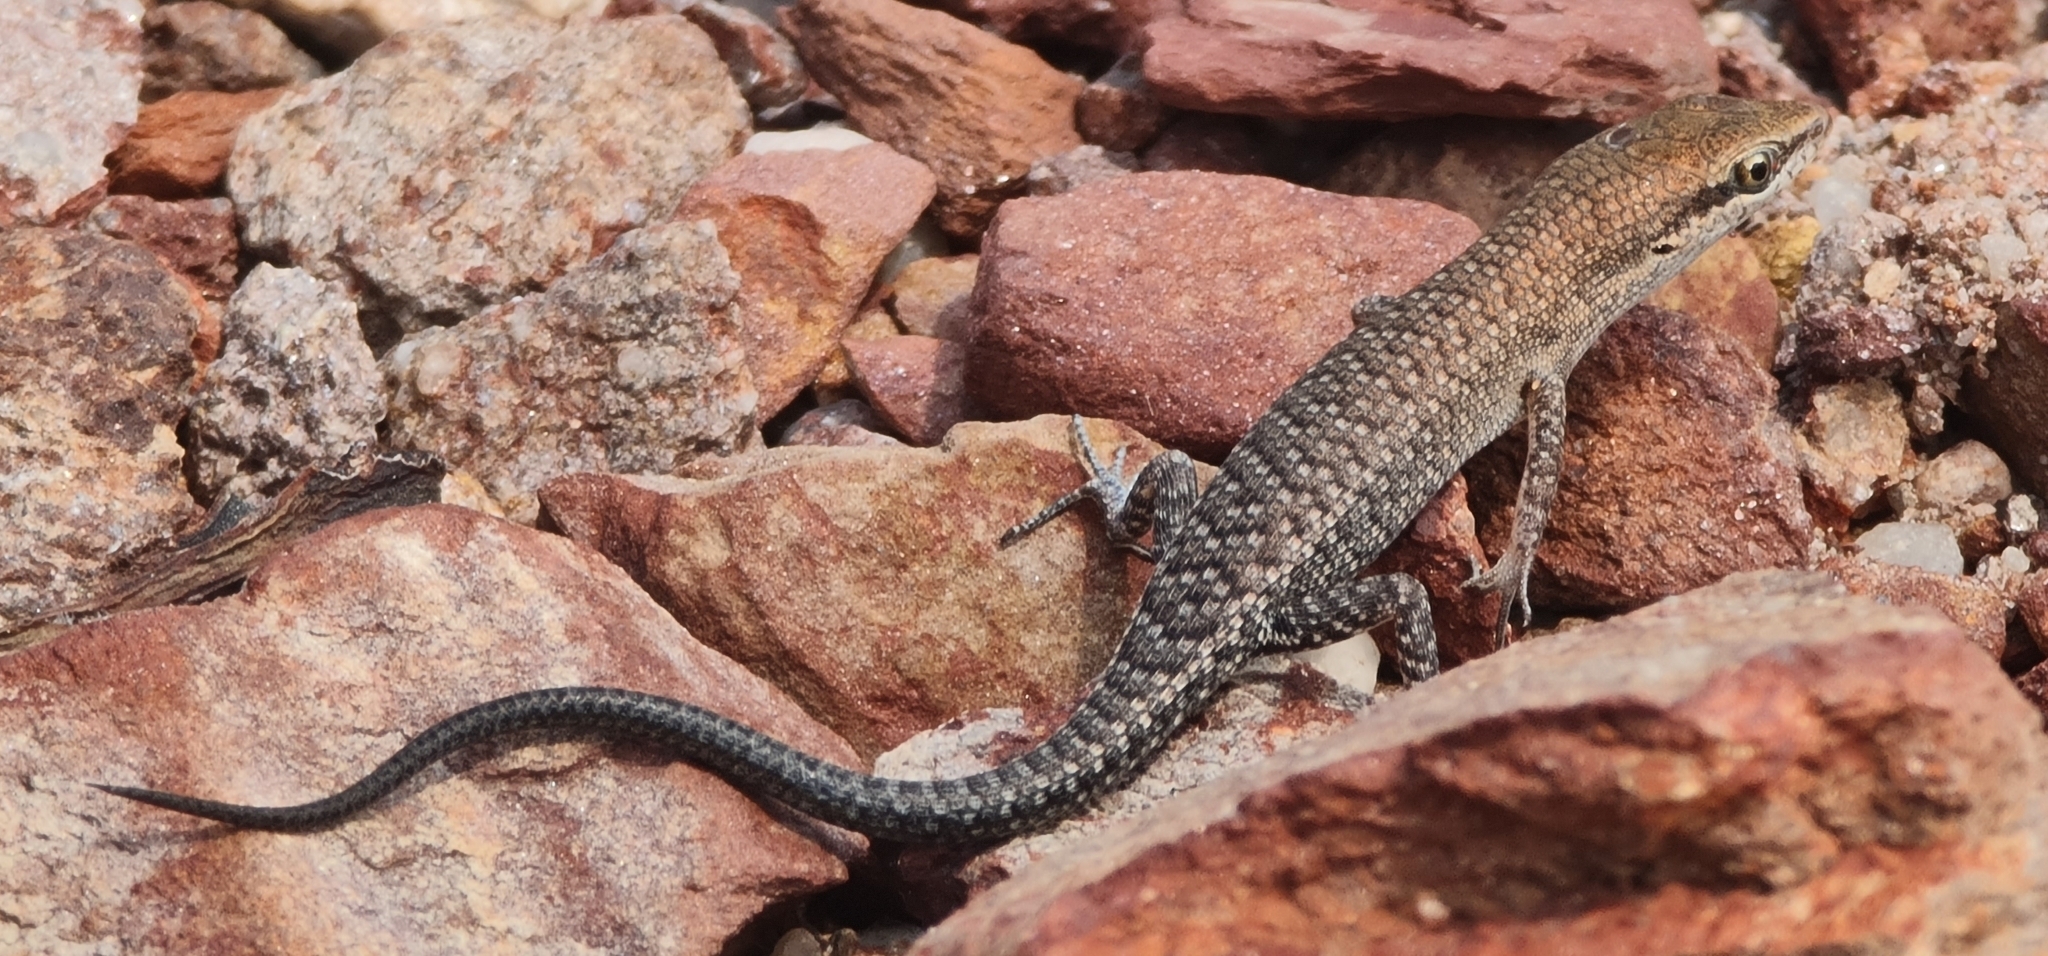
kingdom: Animalia
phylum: Chordata
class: Squamata
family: Scincidae
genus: Carlia
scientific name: Carlia amax
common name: Bauxite rainbow-skink
